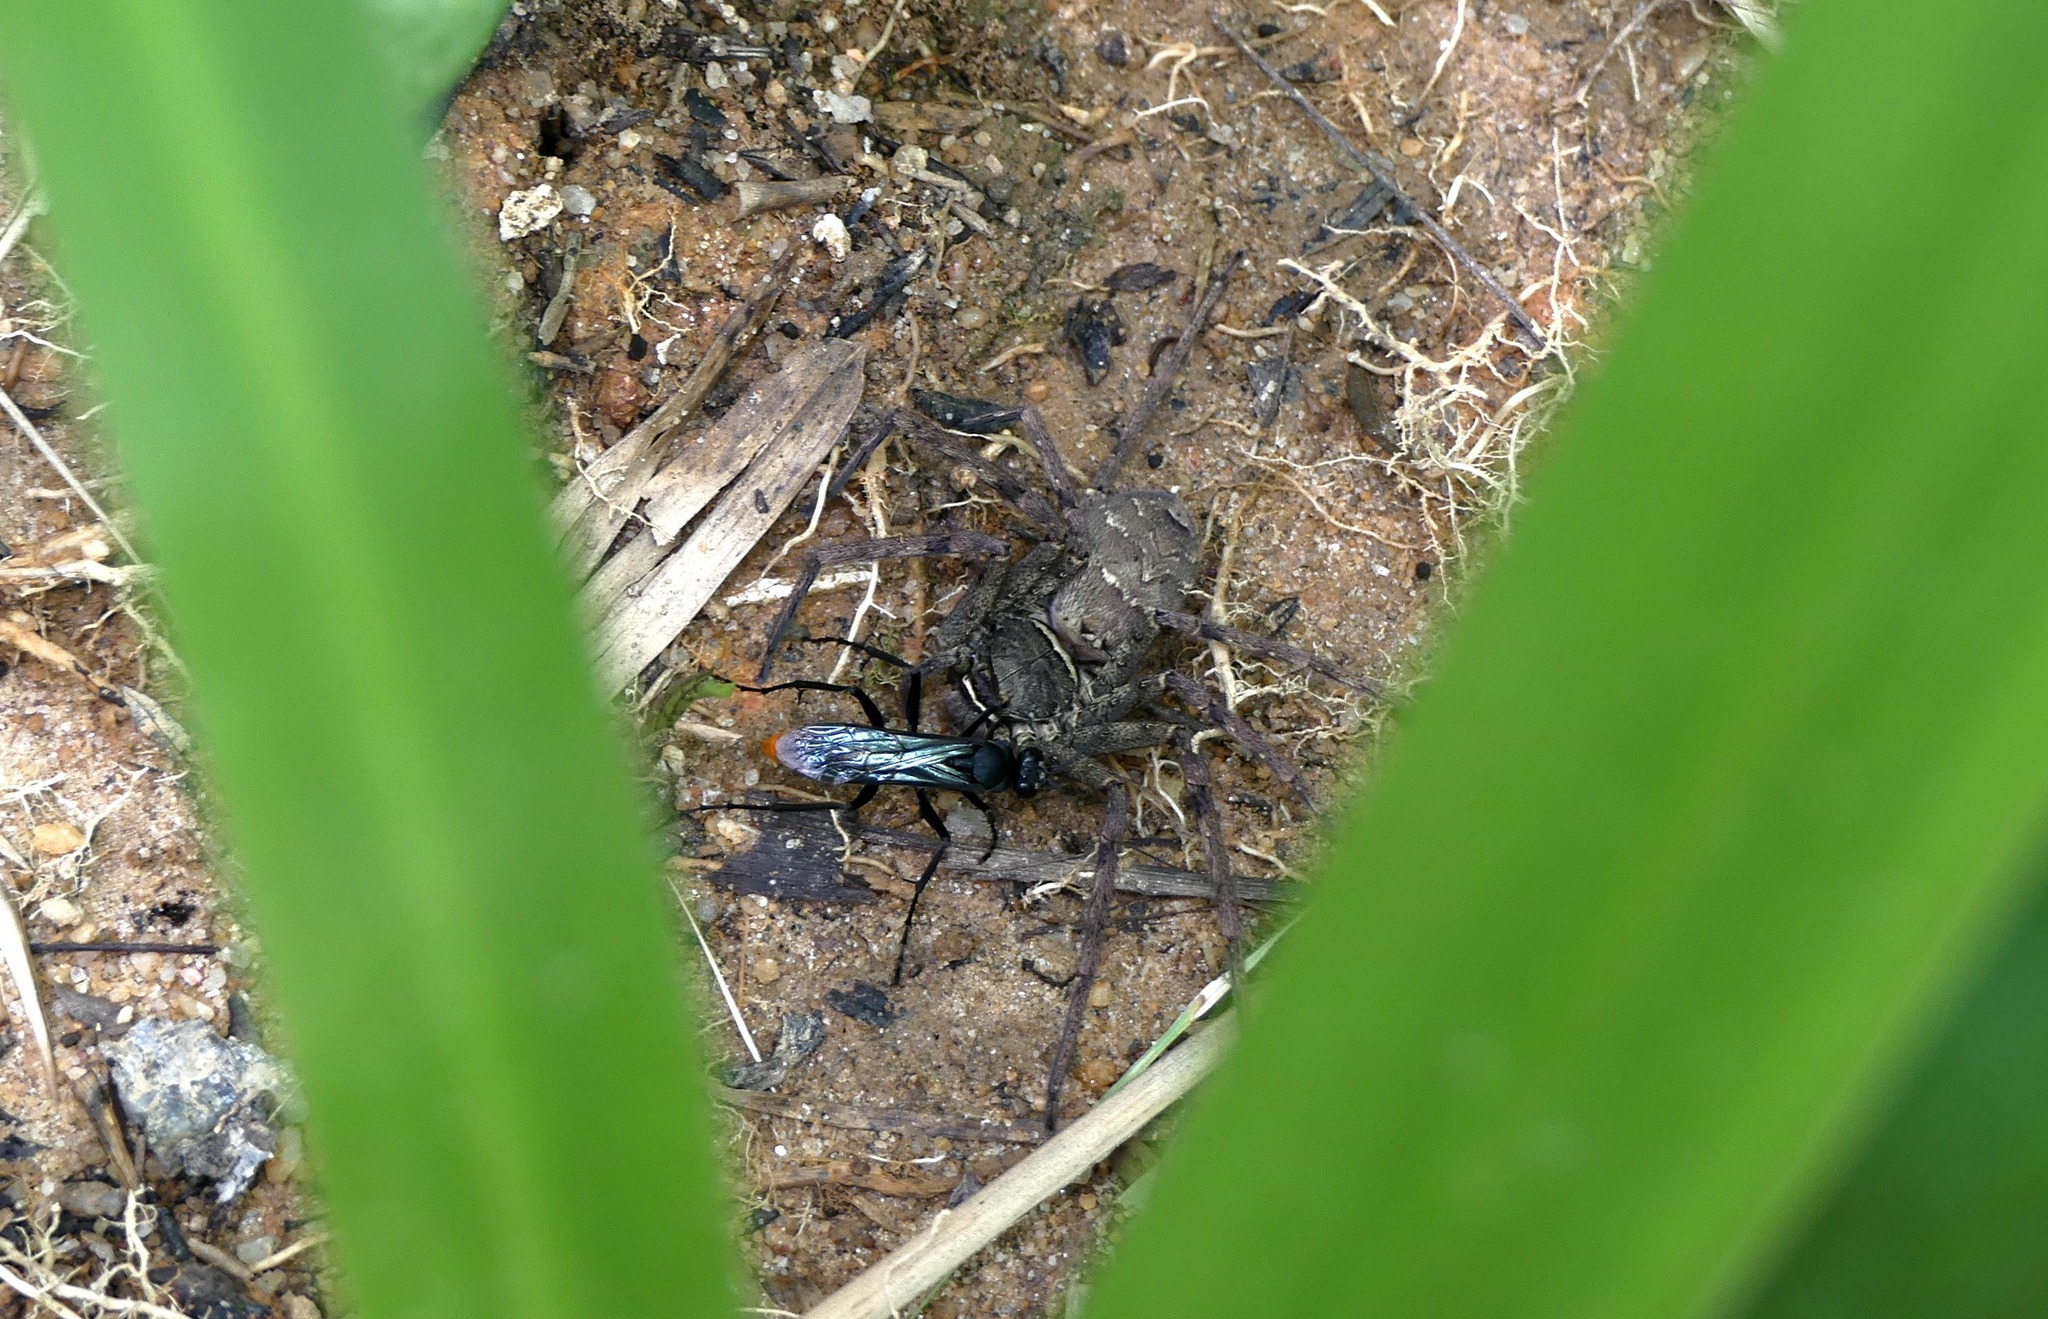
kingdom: Animalia
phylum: Arthropoda
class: Arachnida
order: Araneae
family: Sparassidae
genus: Heteropoda
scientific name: Heteropoda venatoria
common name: Huntsman spider
